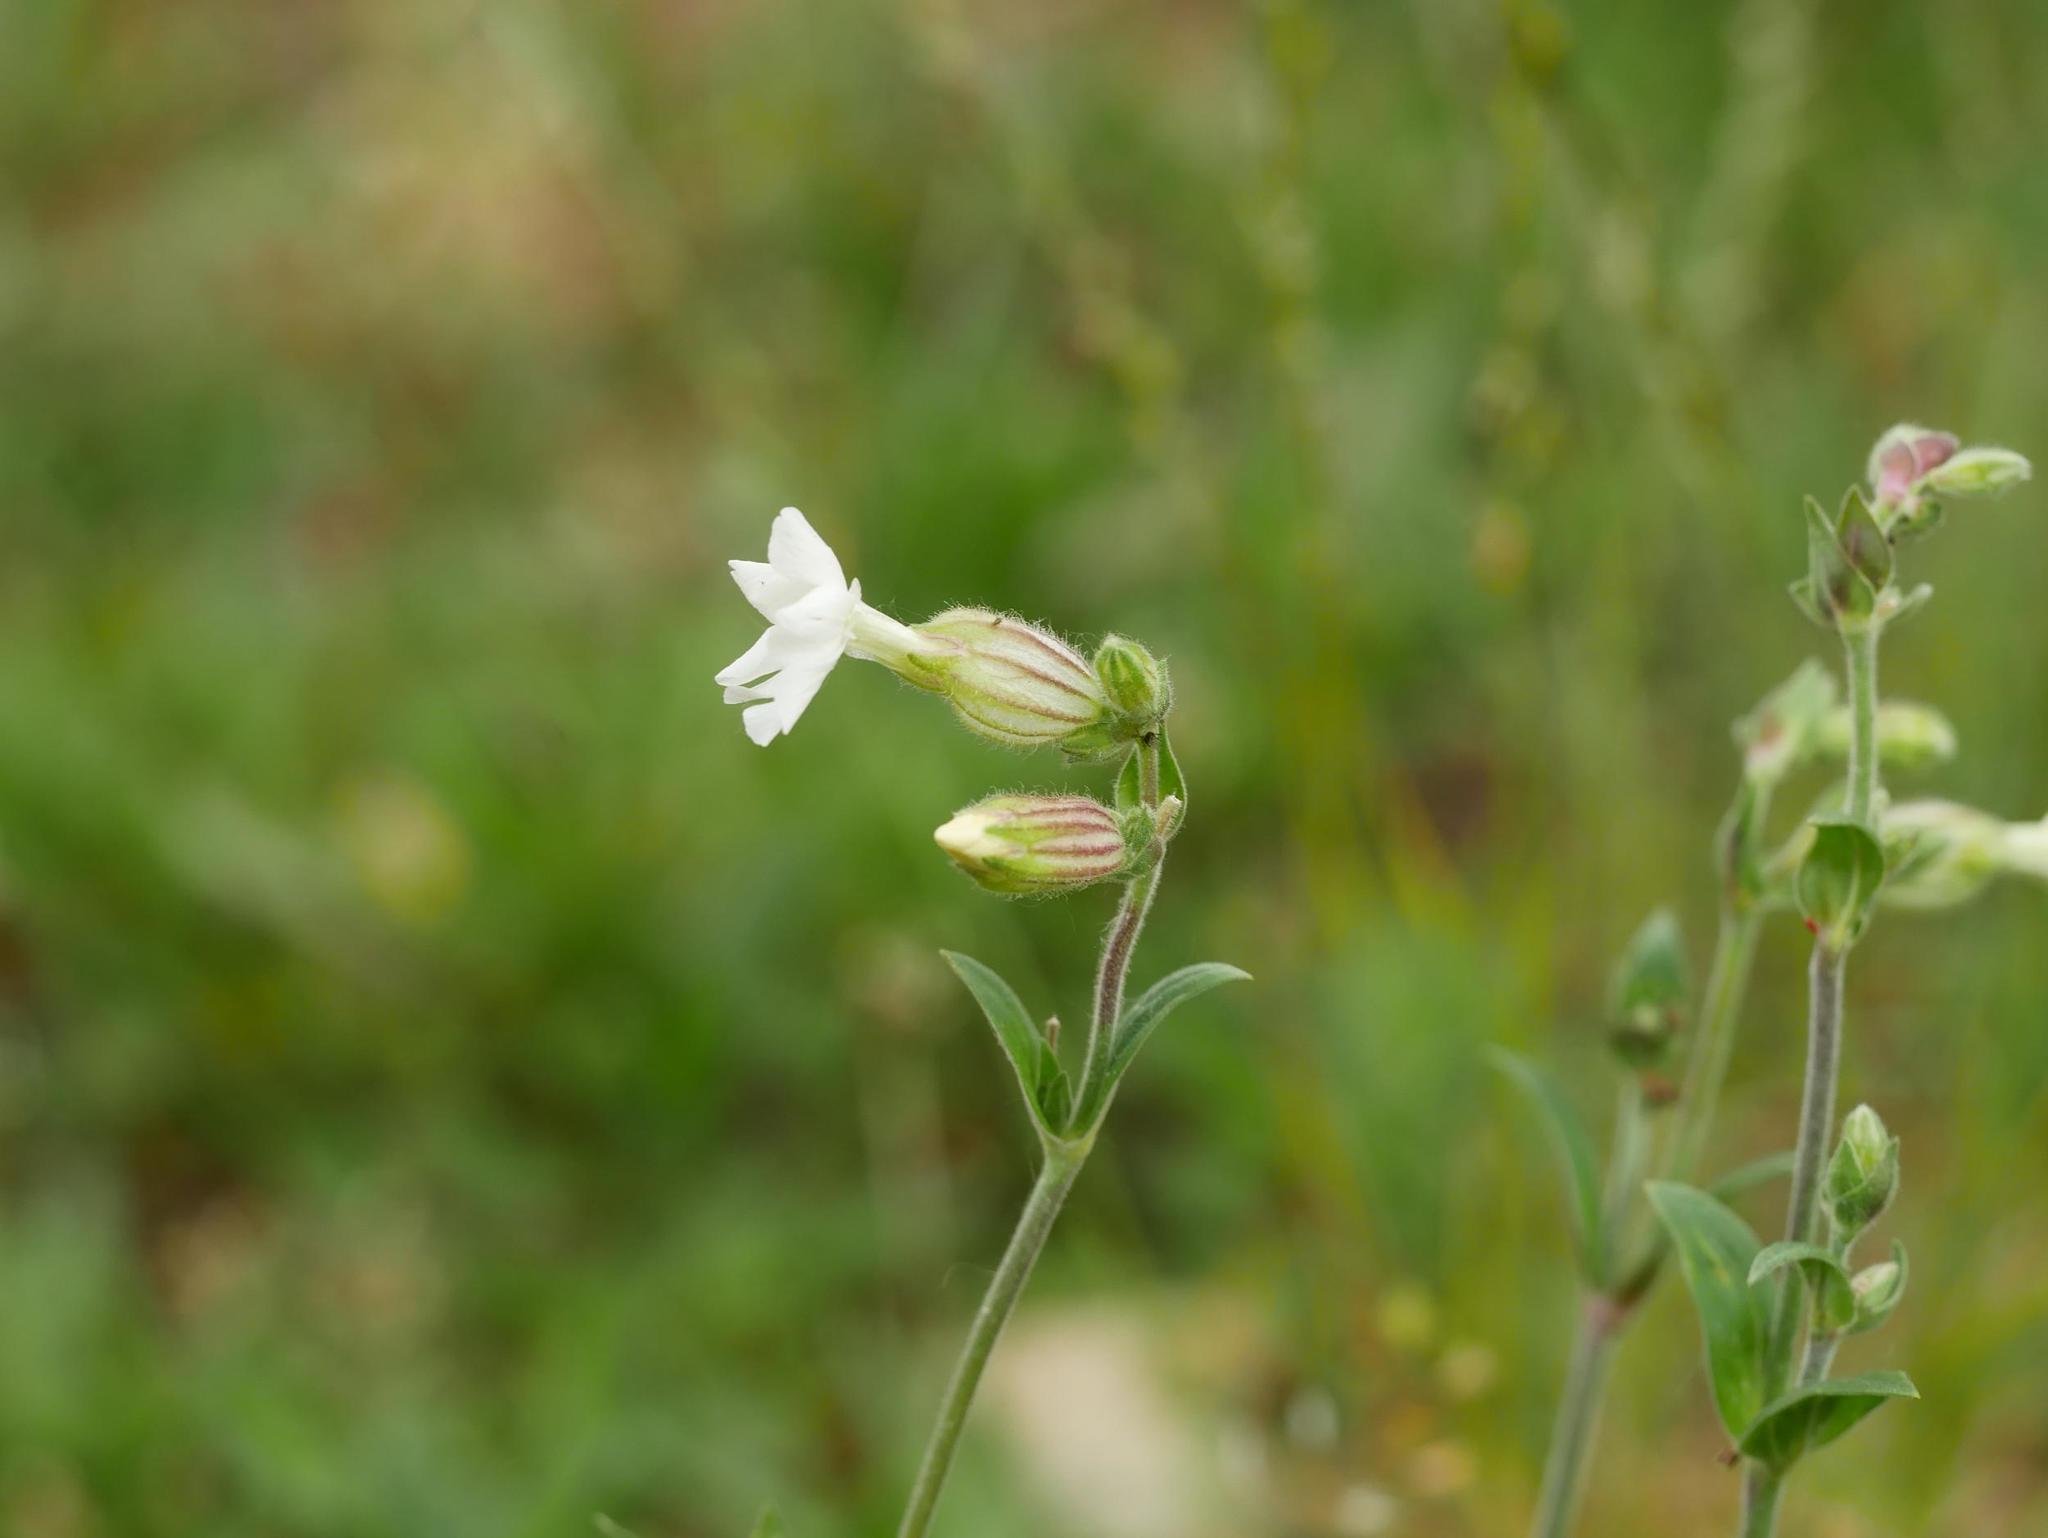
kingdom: Plantae
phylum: Tracheophyta
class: Magnoliopsida
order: Caryophyllales
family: Caryophyllaceae
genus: Silene
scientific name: Silene latifolia
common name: White campion
